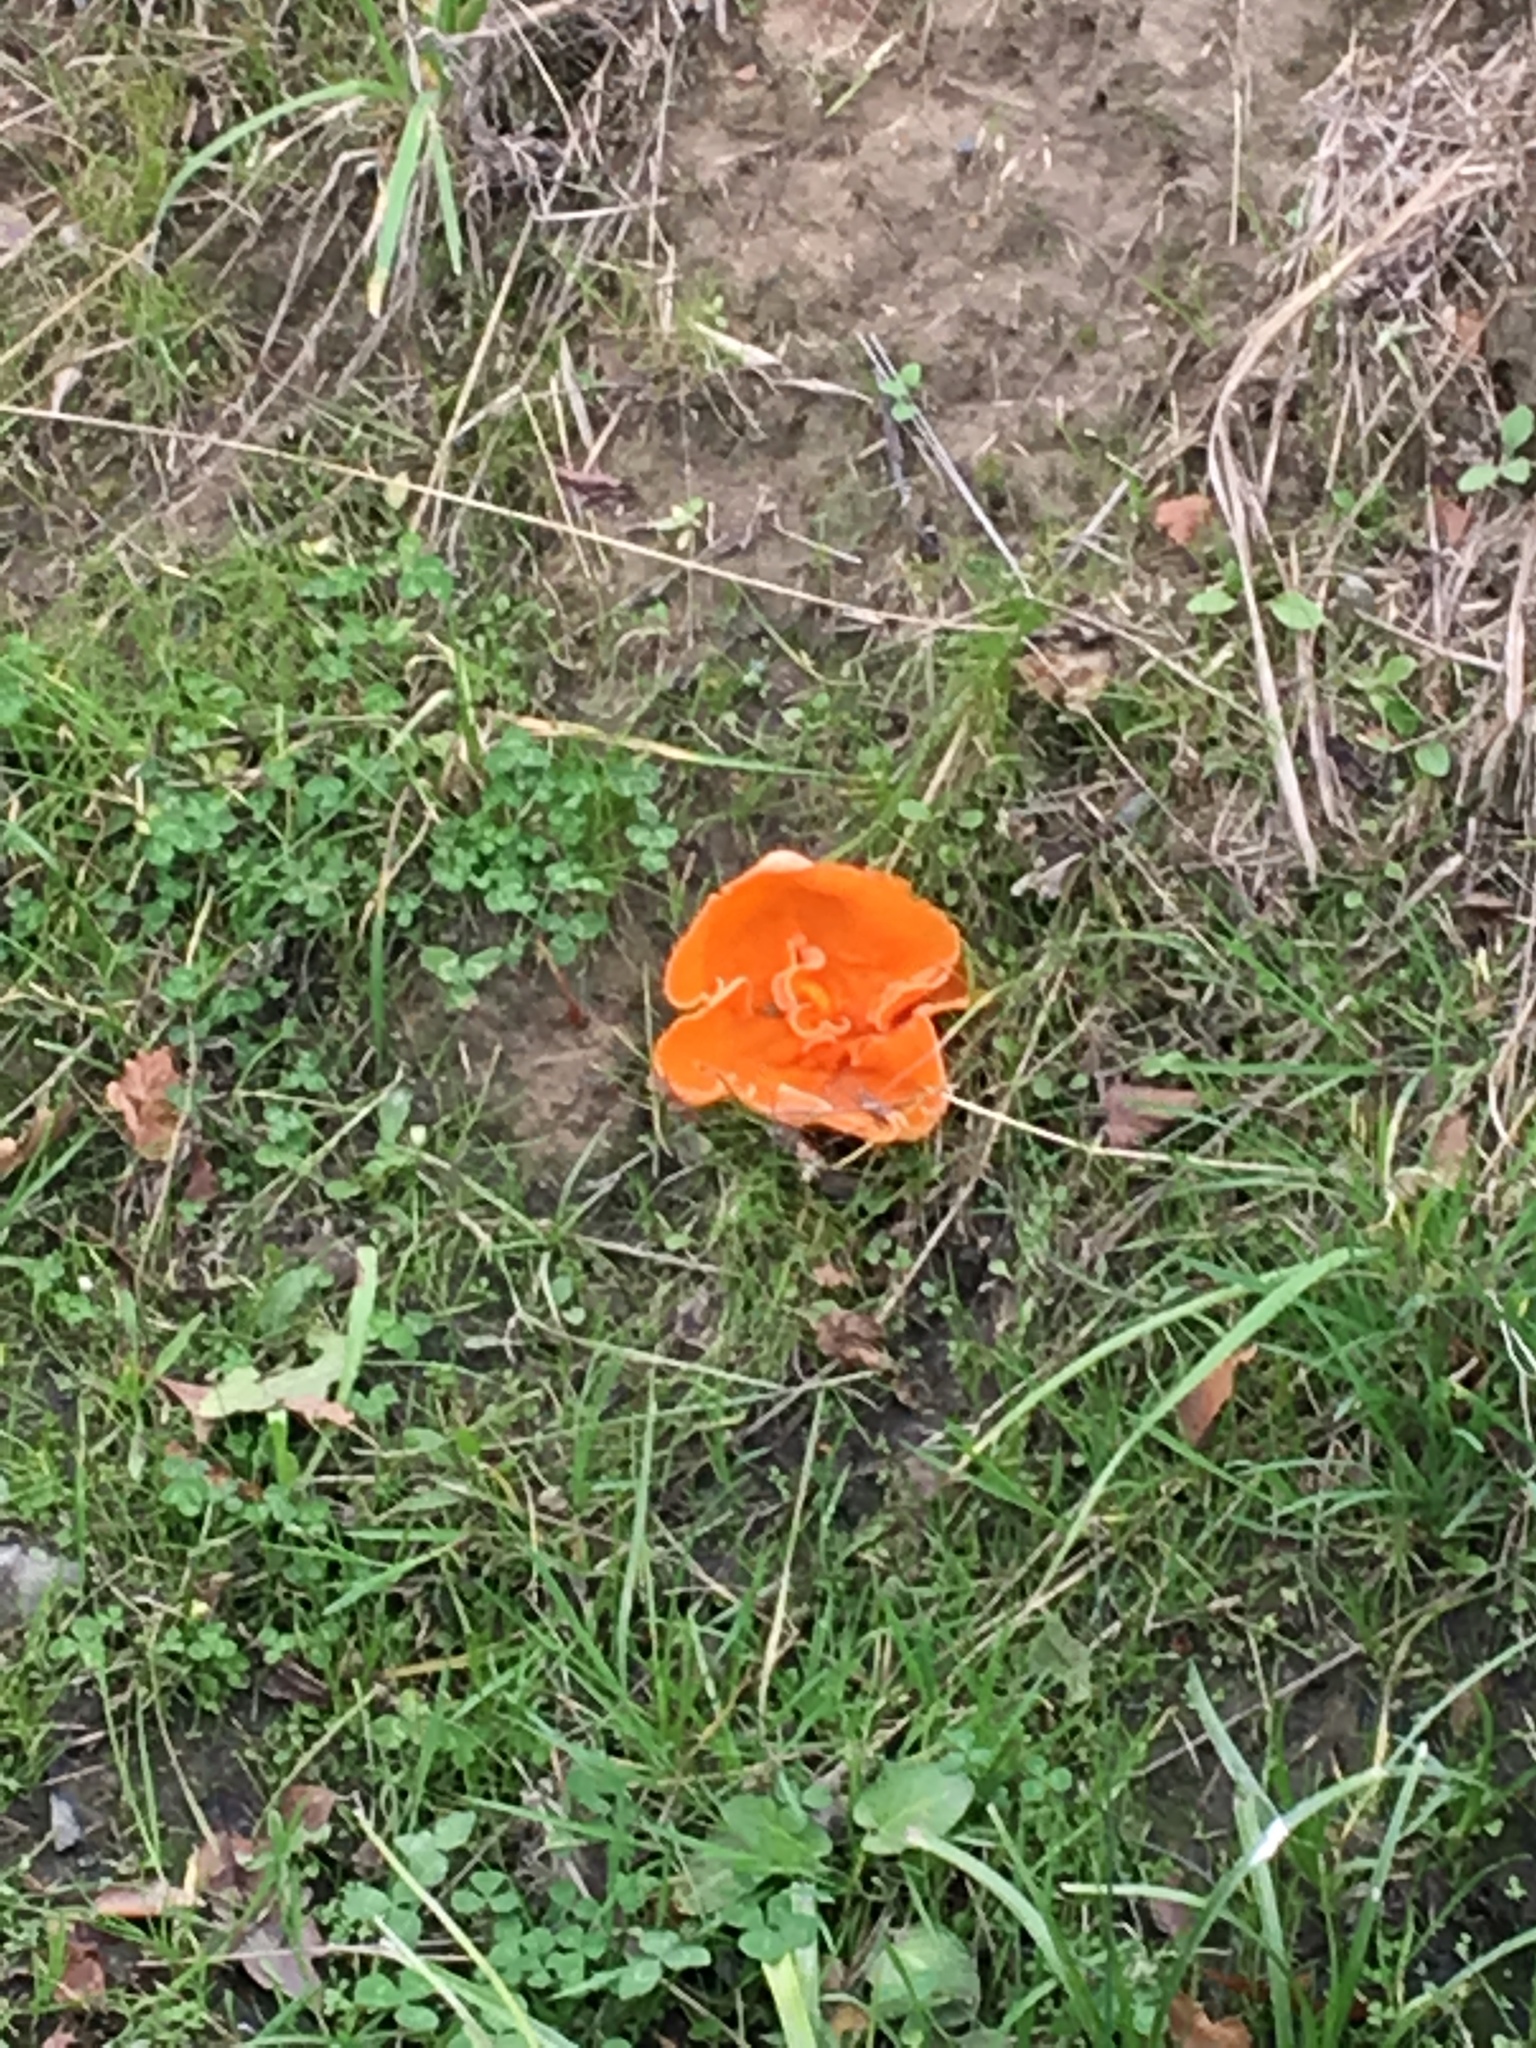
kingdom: Fungi
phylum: Ascomycota
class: Pezizomycetes
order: Pezizales
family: Pyronemataceae
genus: Aleuria
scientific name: Aleuria aurantia
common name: Orange peel fungus
